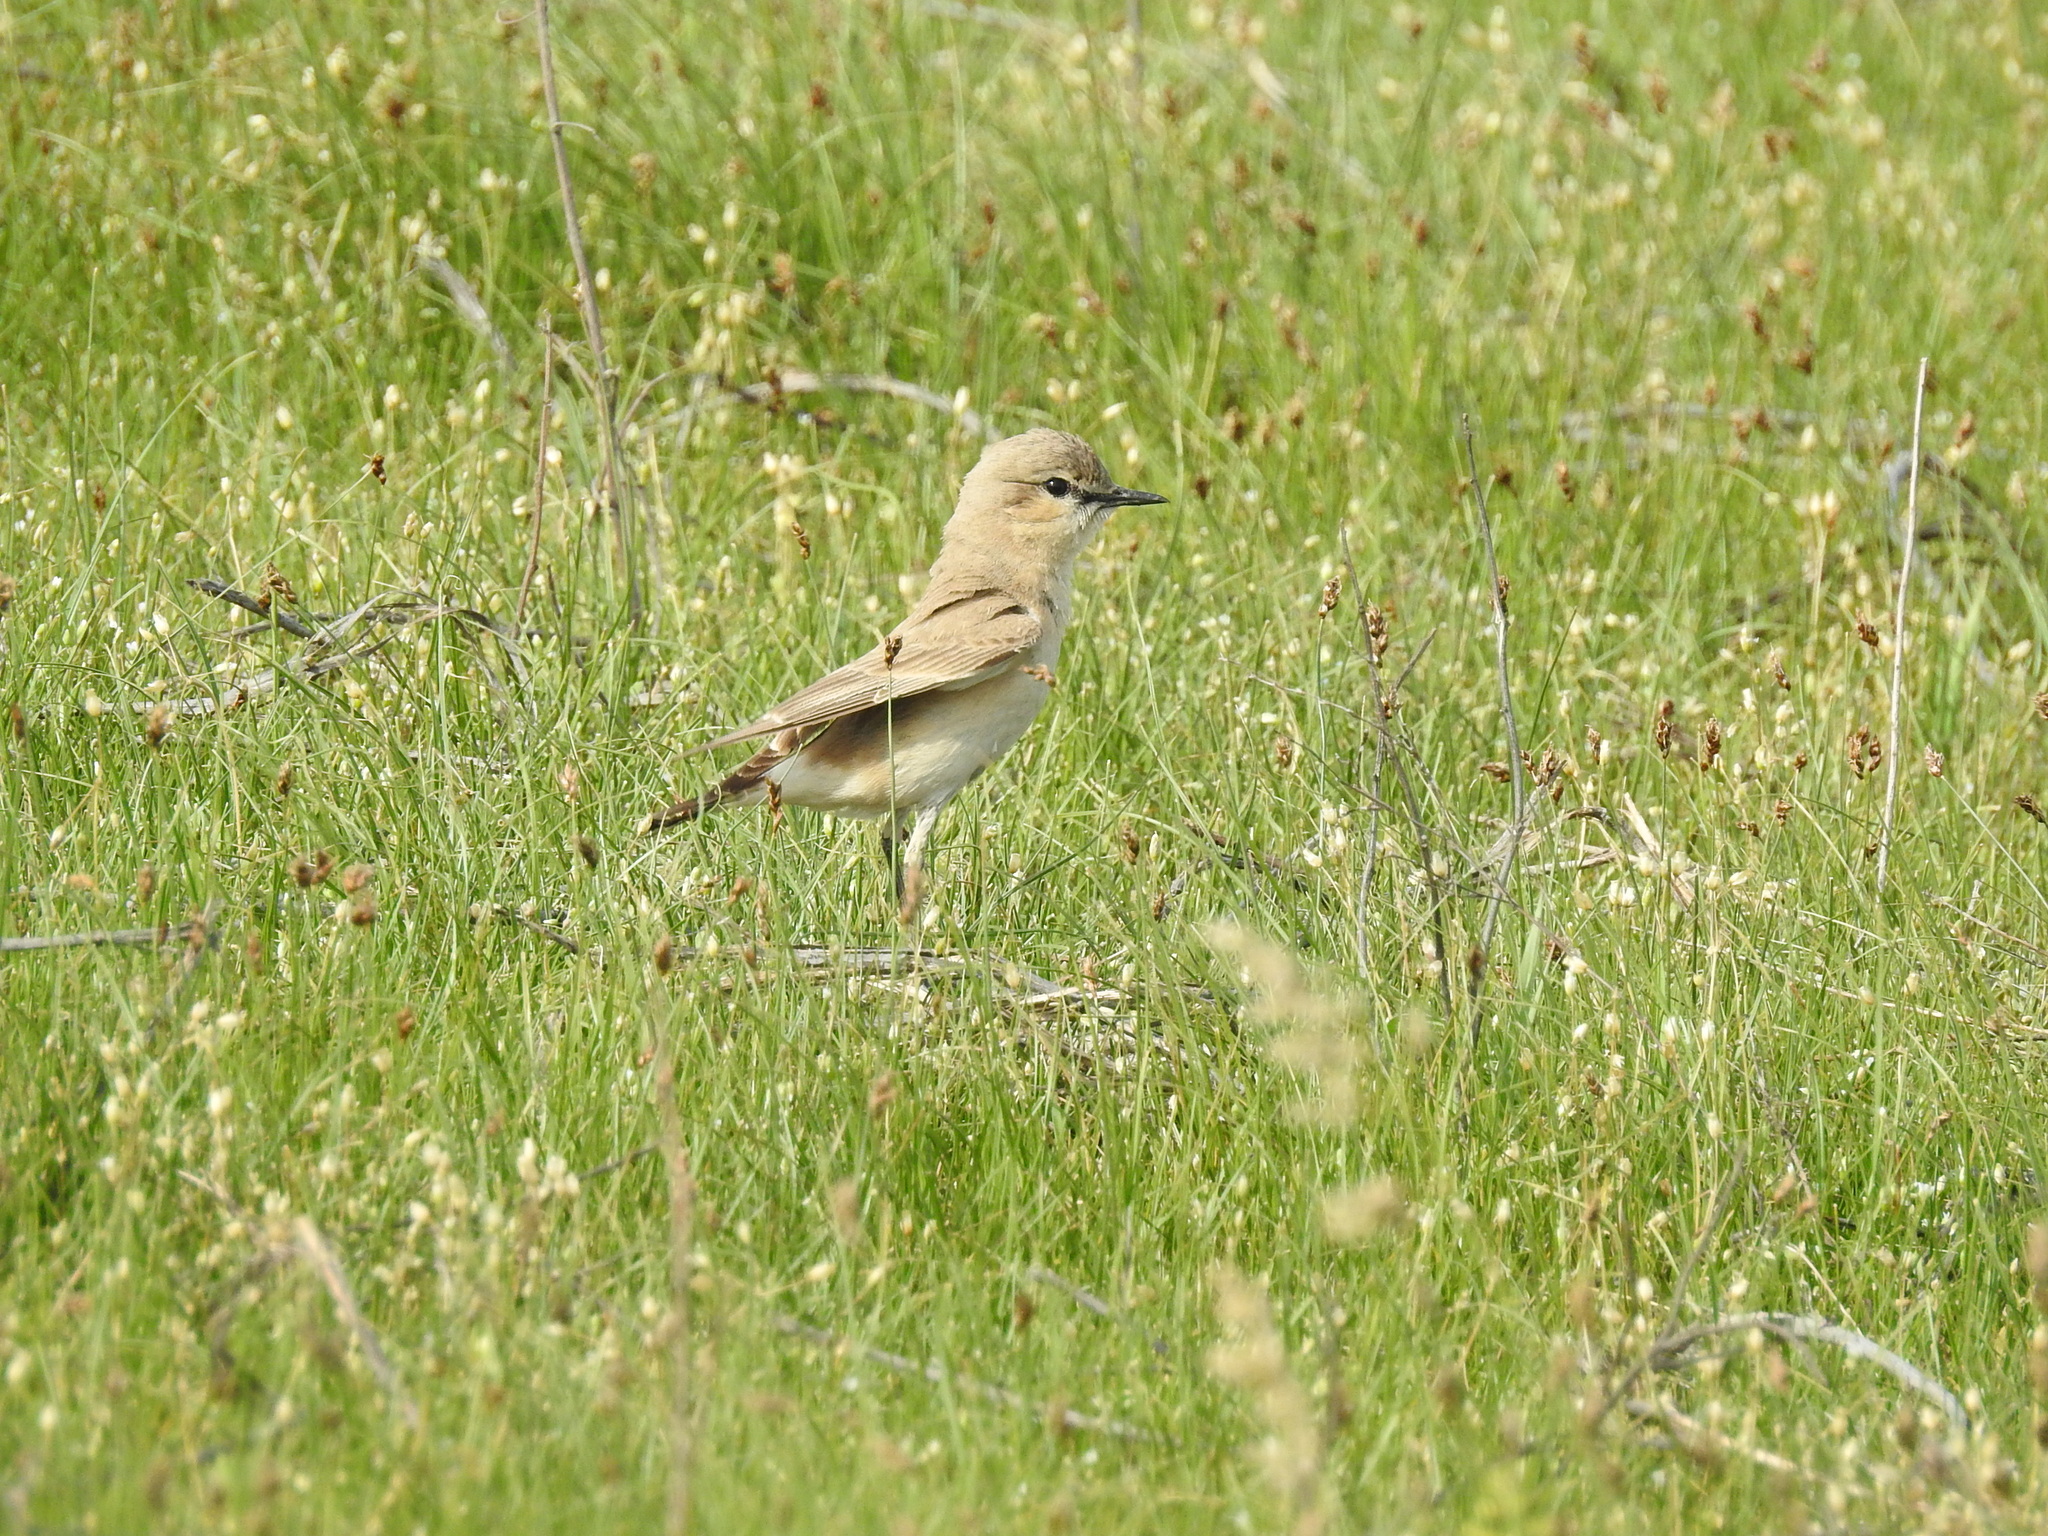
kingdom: Animalia
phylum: Chordata
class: Aves
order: Passeriformes
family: Muscicapidae
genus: Oenanthe
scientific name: Oenanthe isabellina
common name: Isabelline wheatear
